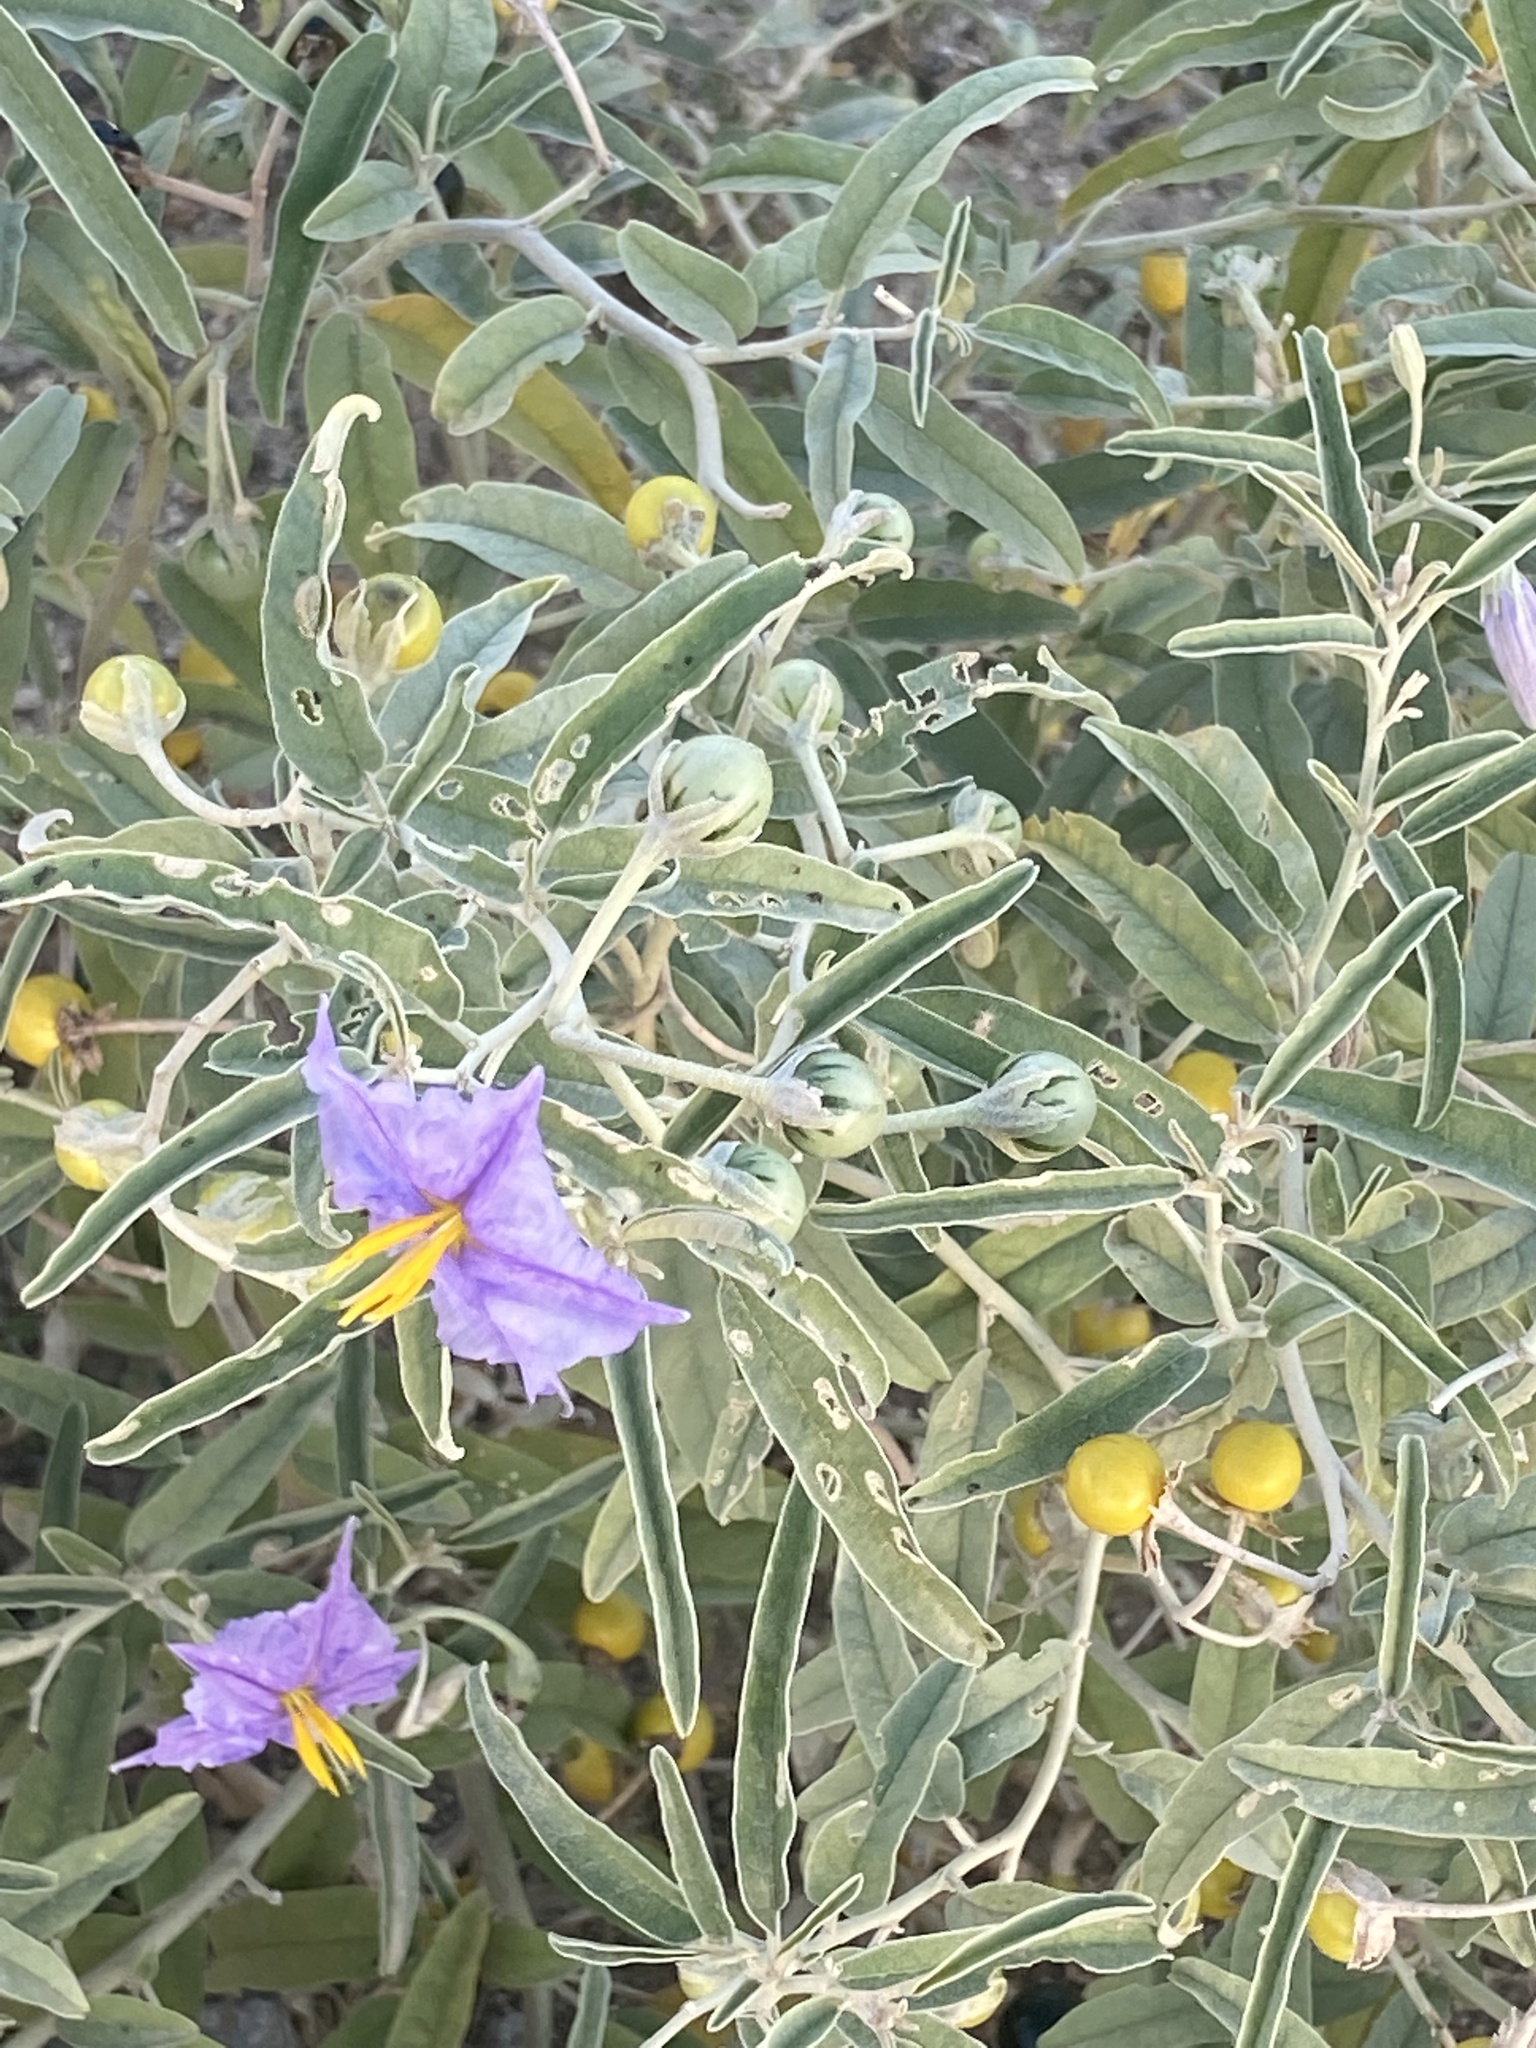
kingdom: Plantae
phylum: Tracheophyta
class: Magnoliopsida
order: Solanales
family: Solanaceae
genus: Solanum
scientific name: Solanum elaeagnifolium
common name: Silverleaf nightshade
